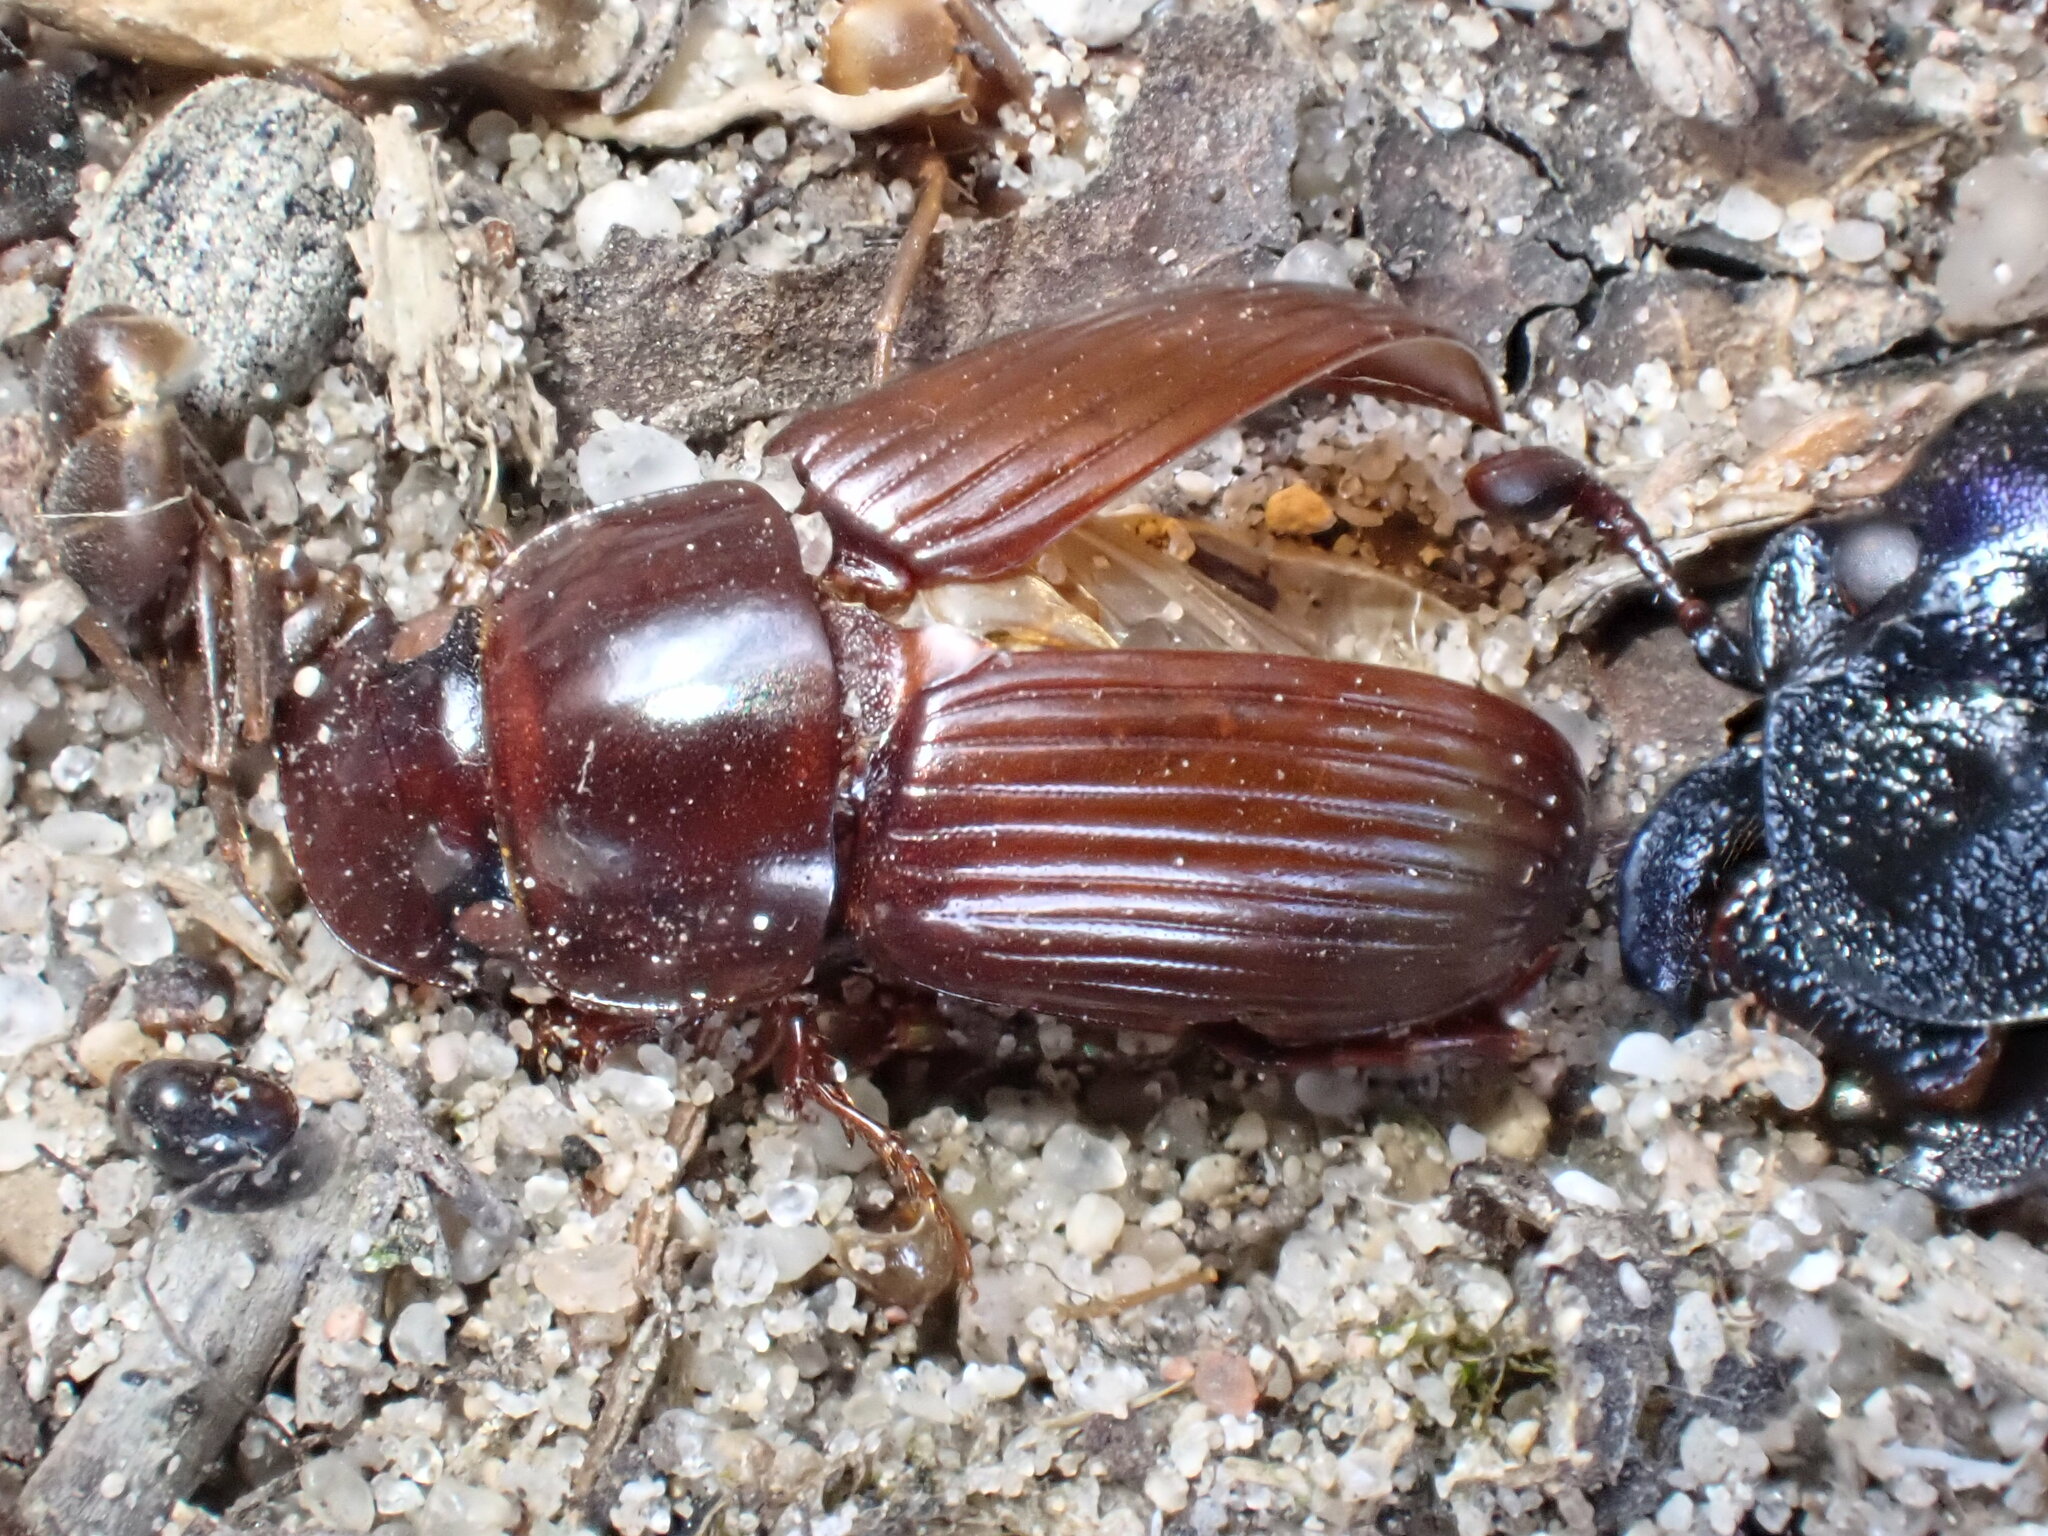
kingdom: Animalia
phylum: Arthropoda
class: Insecta
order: Coleoptera
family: Scarabaeidae
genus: Acrossus
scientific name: Acrossus rufipes
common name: Night-flying dung beetle
